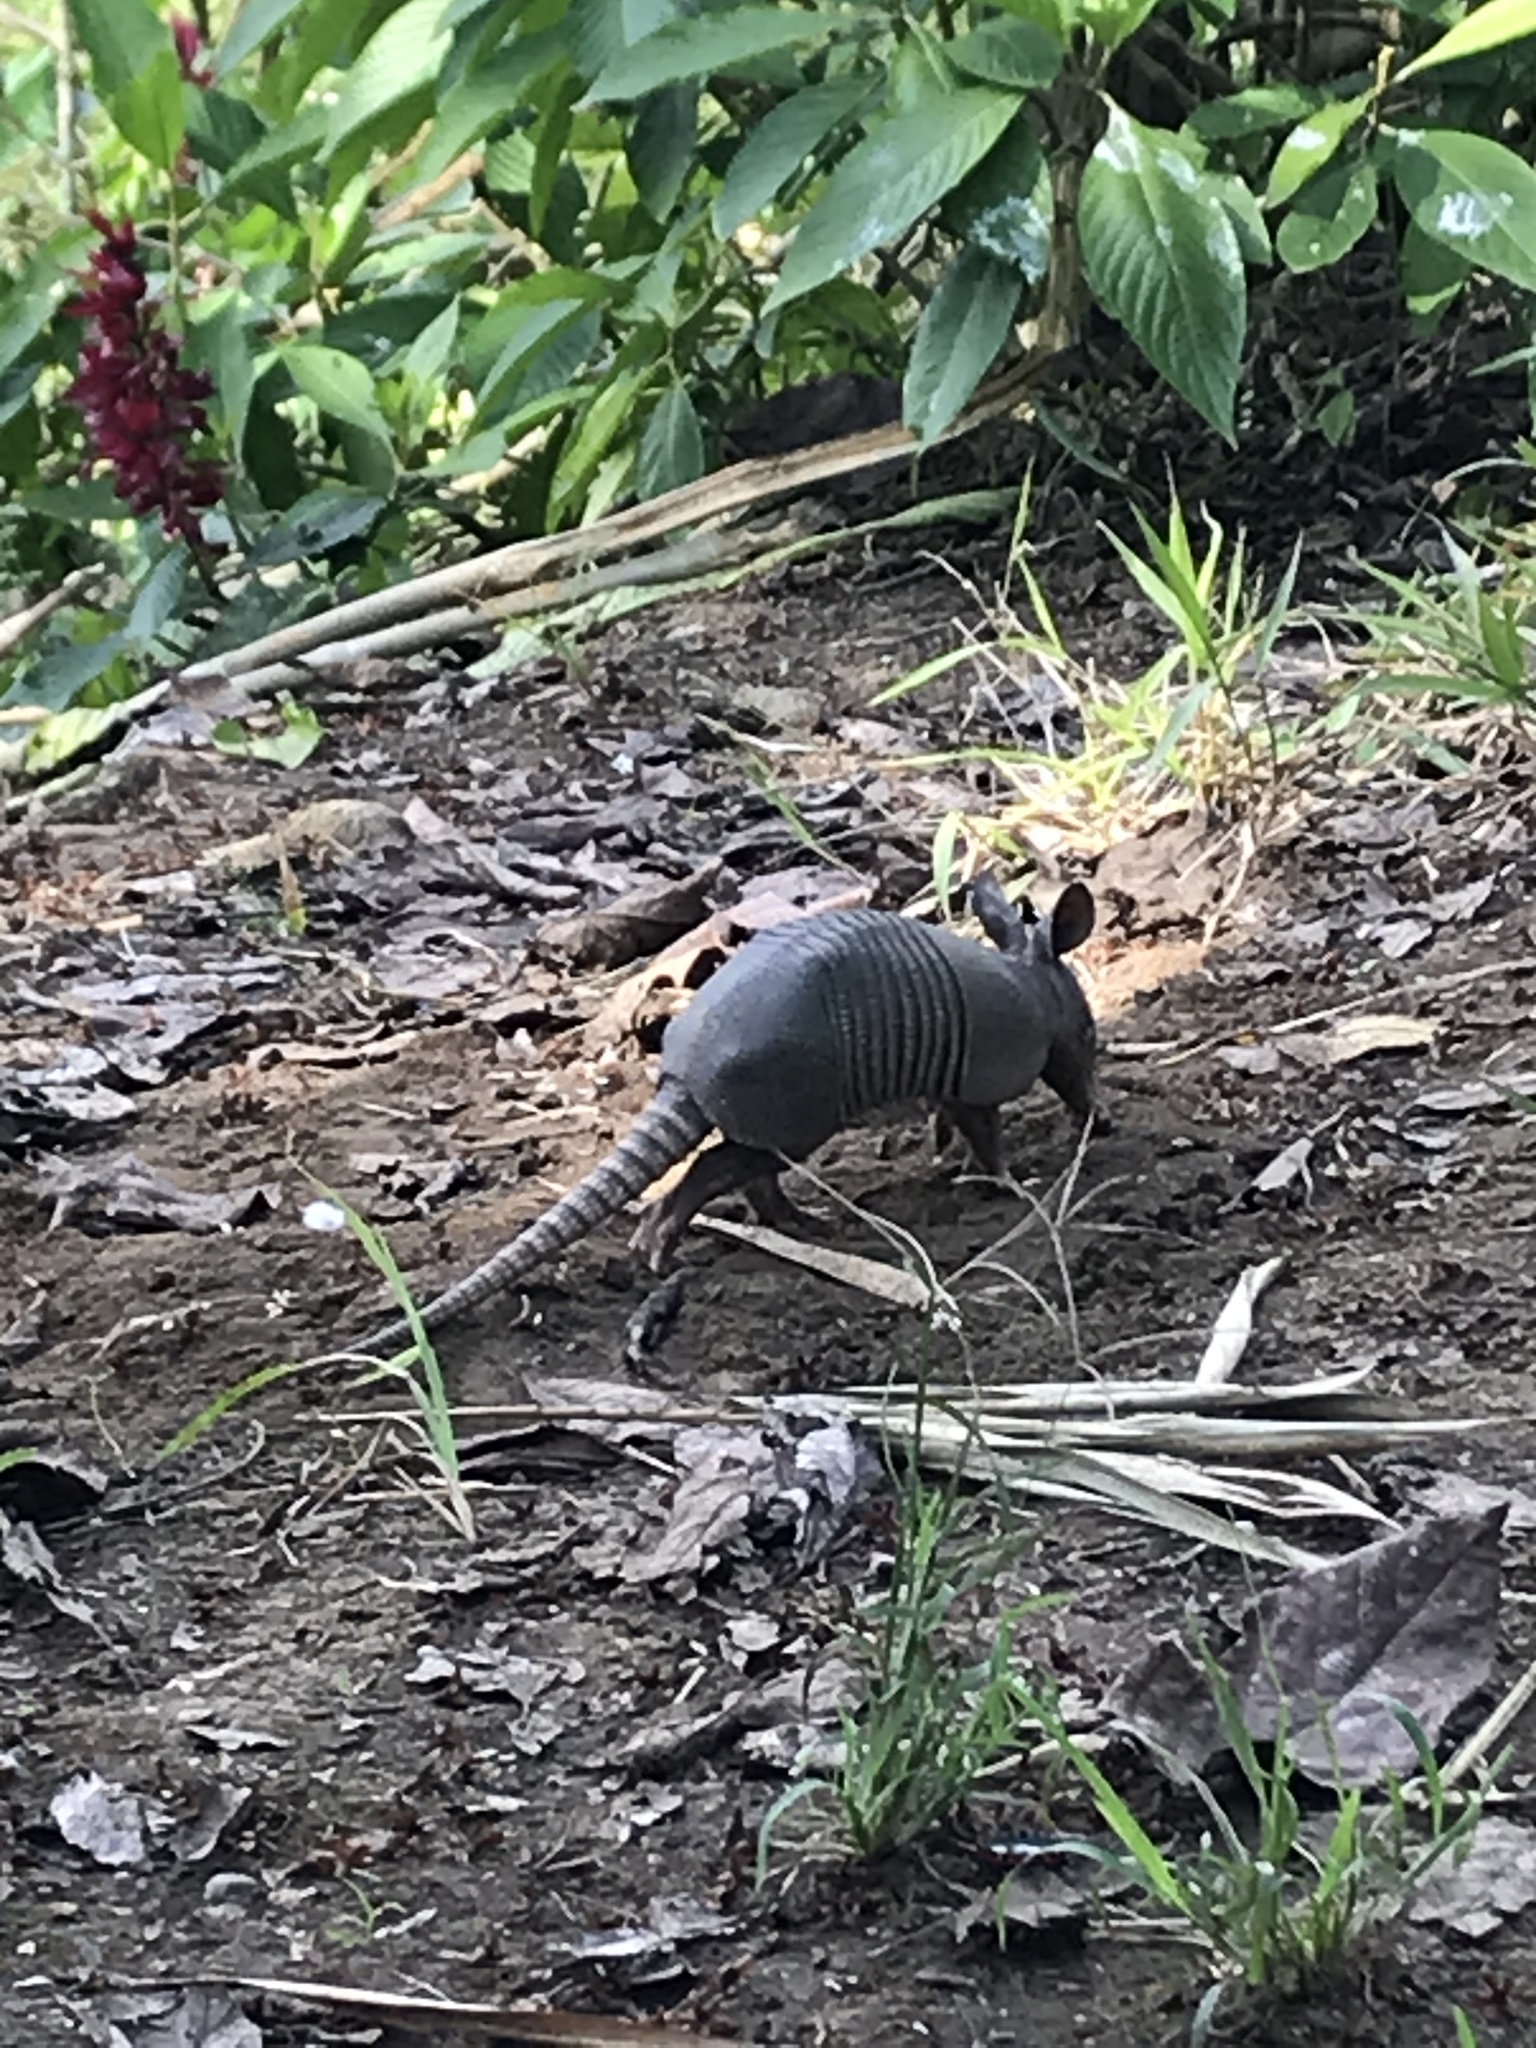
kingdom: Animalia
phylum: Chordata
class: Mammalia
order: Cingulata
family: Dasypodidae
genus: Dasypus
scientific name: Dasypus novemcinctus
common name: Nine-banded armadillo
